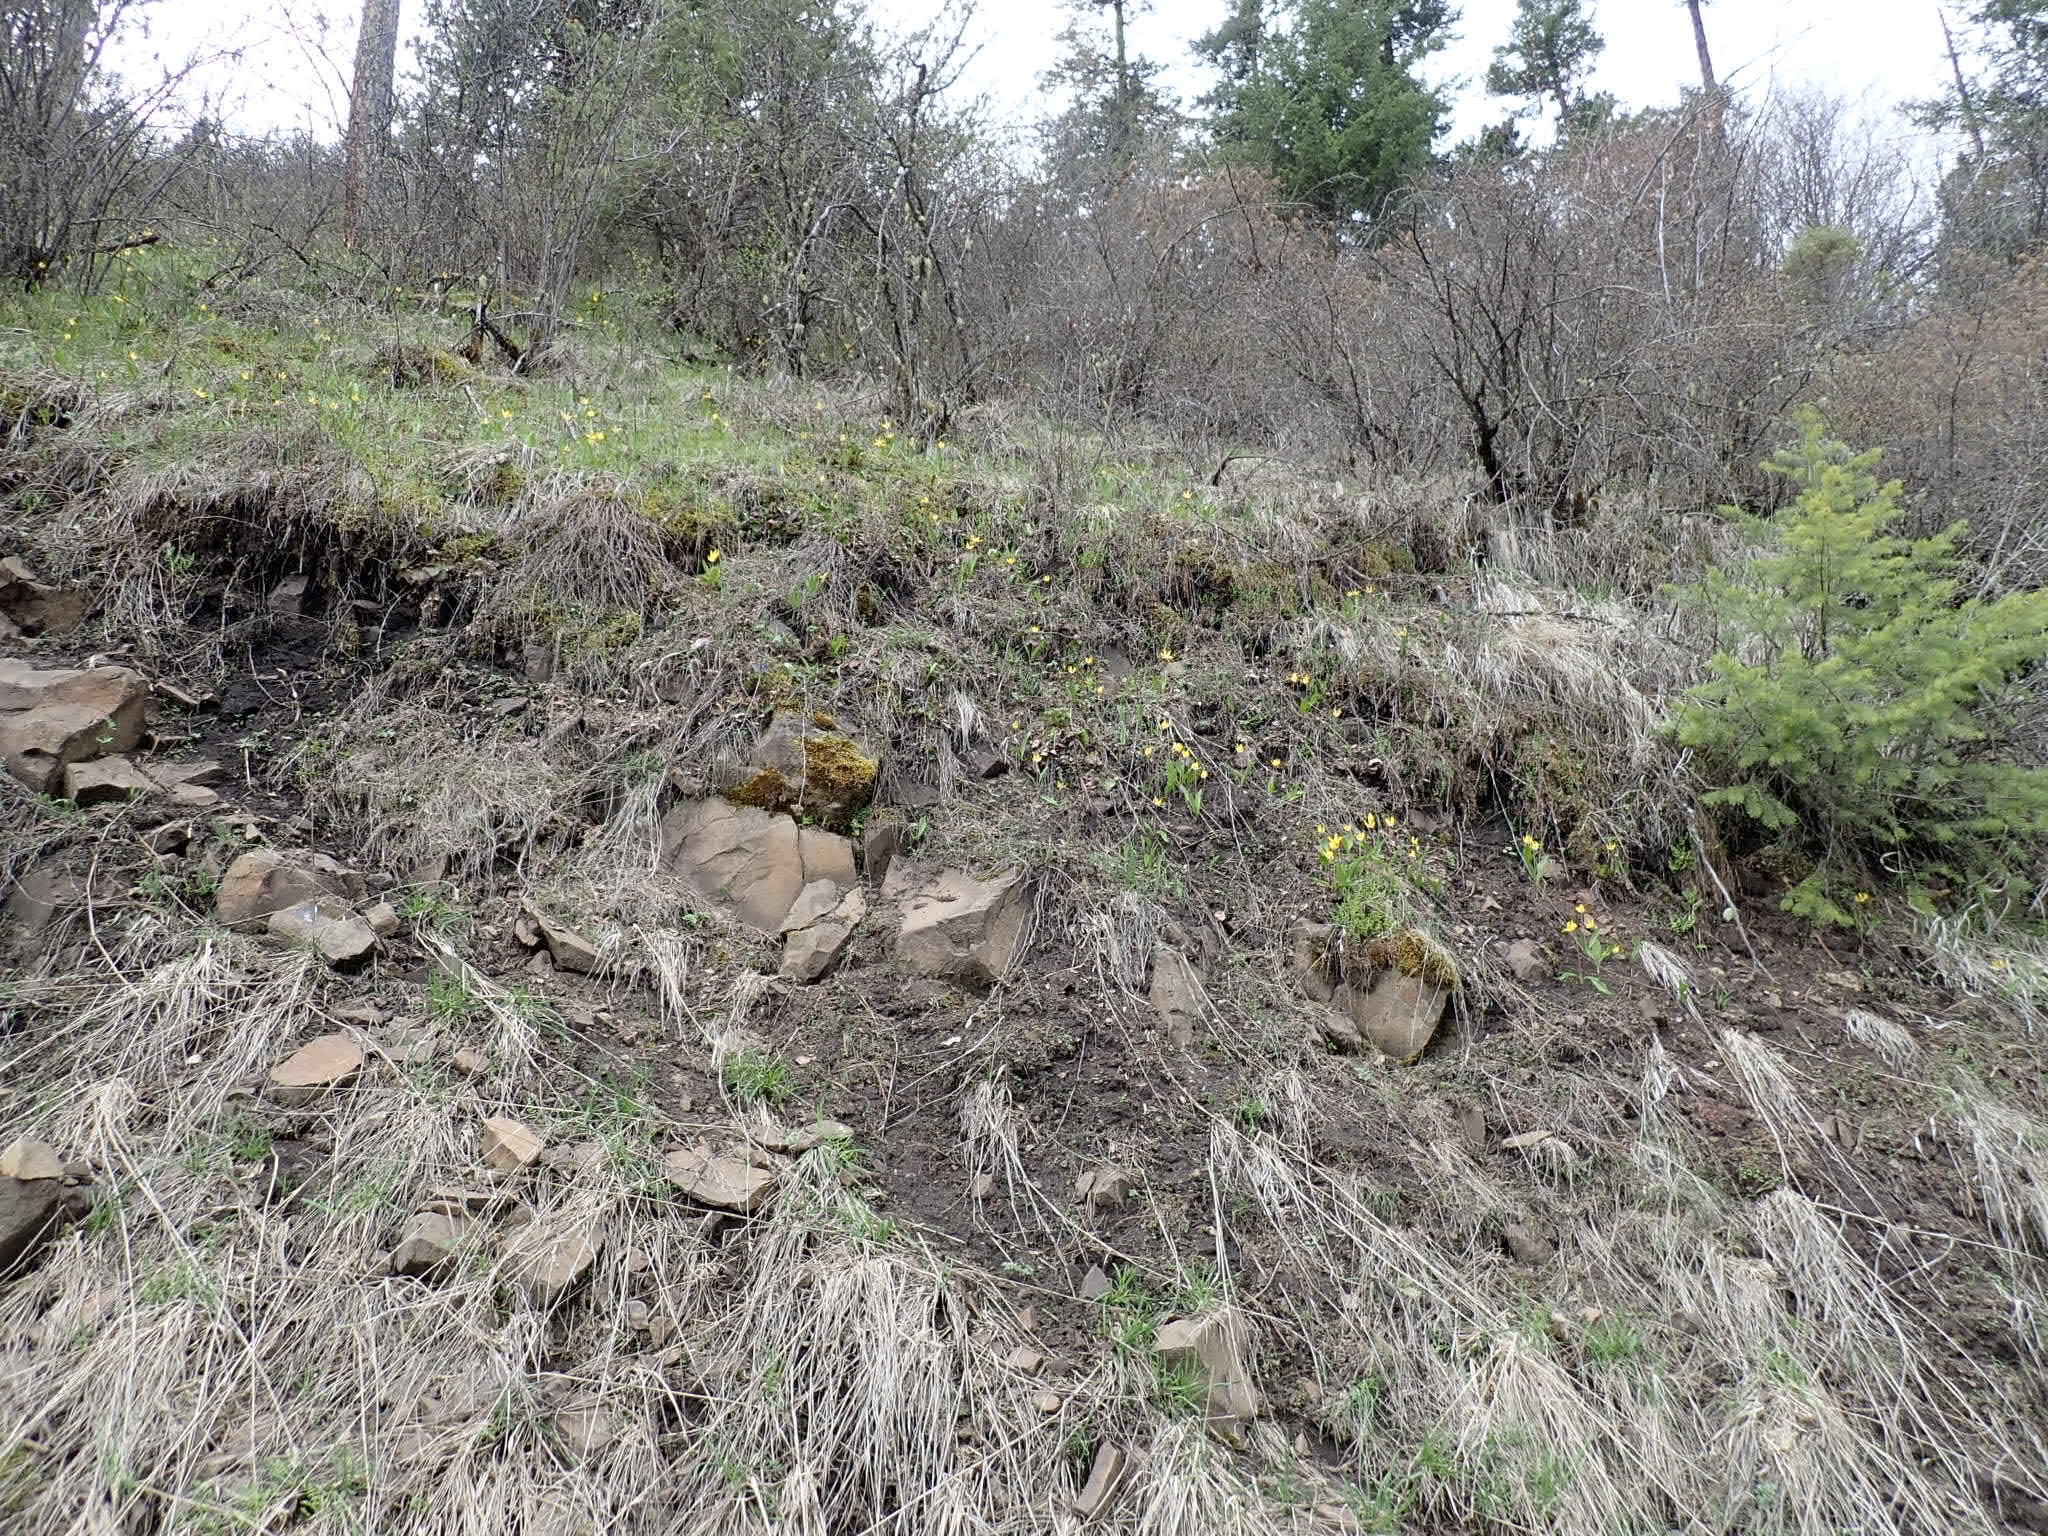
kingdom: Plantae
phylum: Tracheophyta
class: Liliopsida
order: Liliales
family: Liliaceae
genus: Erythronium
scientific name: Erythronium grandiflorum
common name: Avalanche-lily
